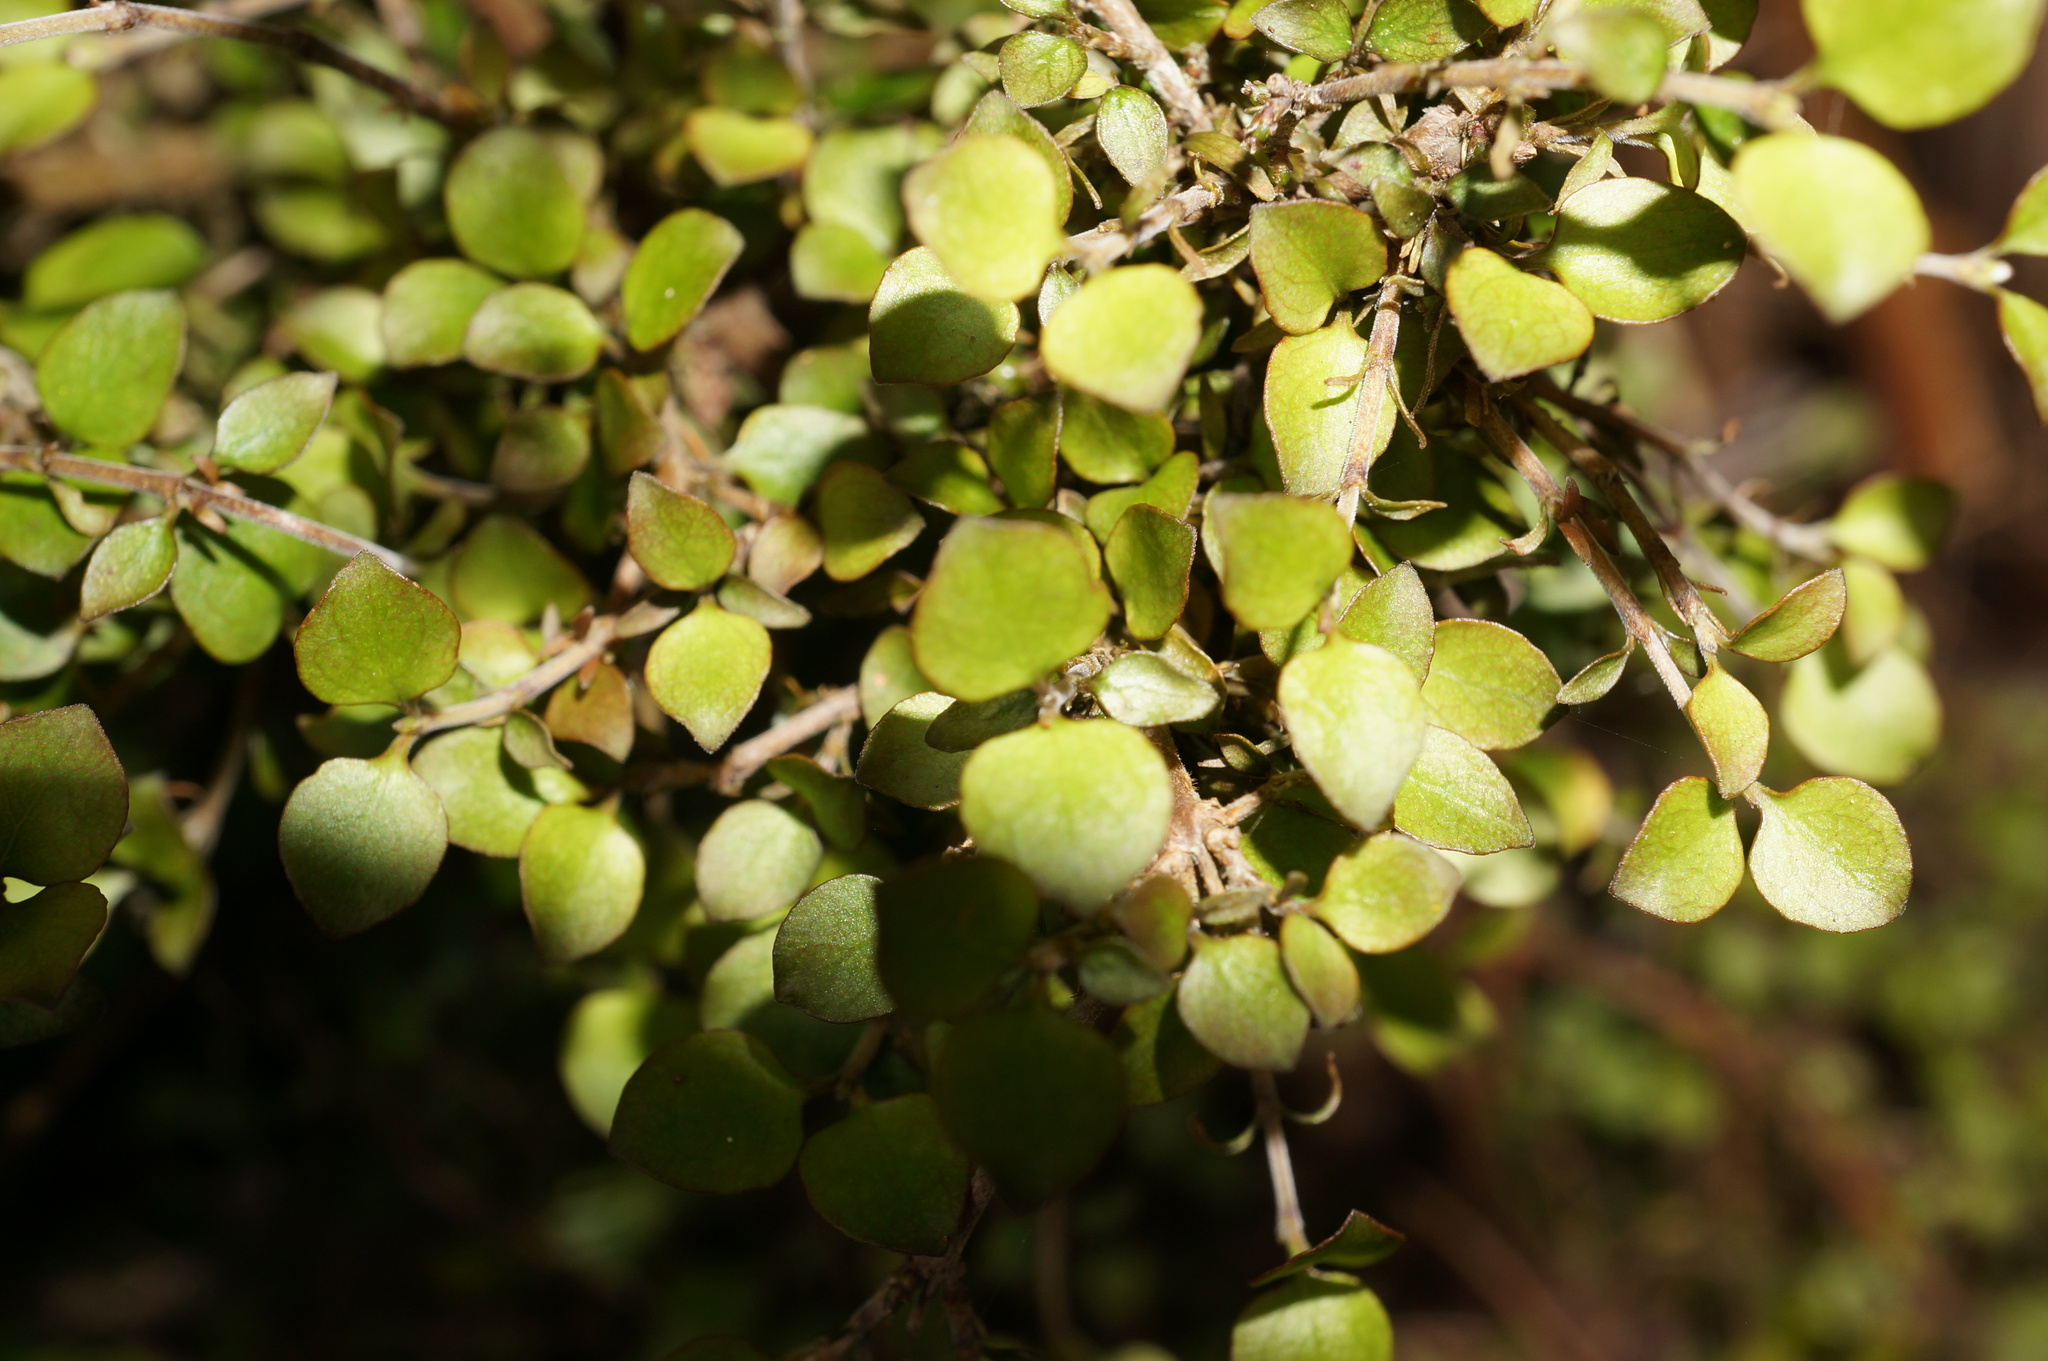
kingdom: Plantae
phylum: Tracheophyta
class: Magnoliopsida
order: Gentianales
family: Rubiaceae
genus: Coprosma
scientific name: Coprosma rhamnoides
